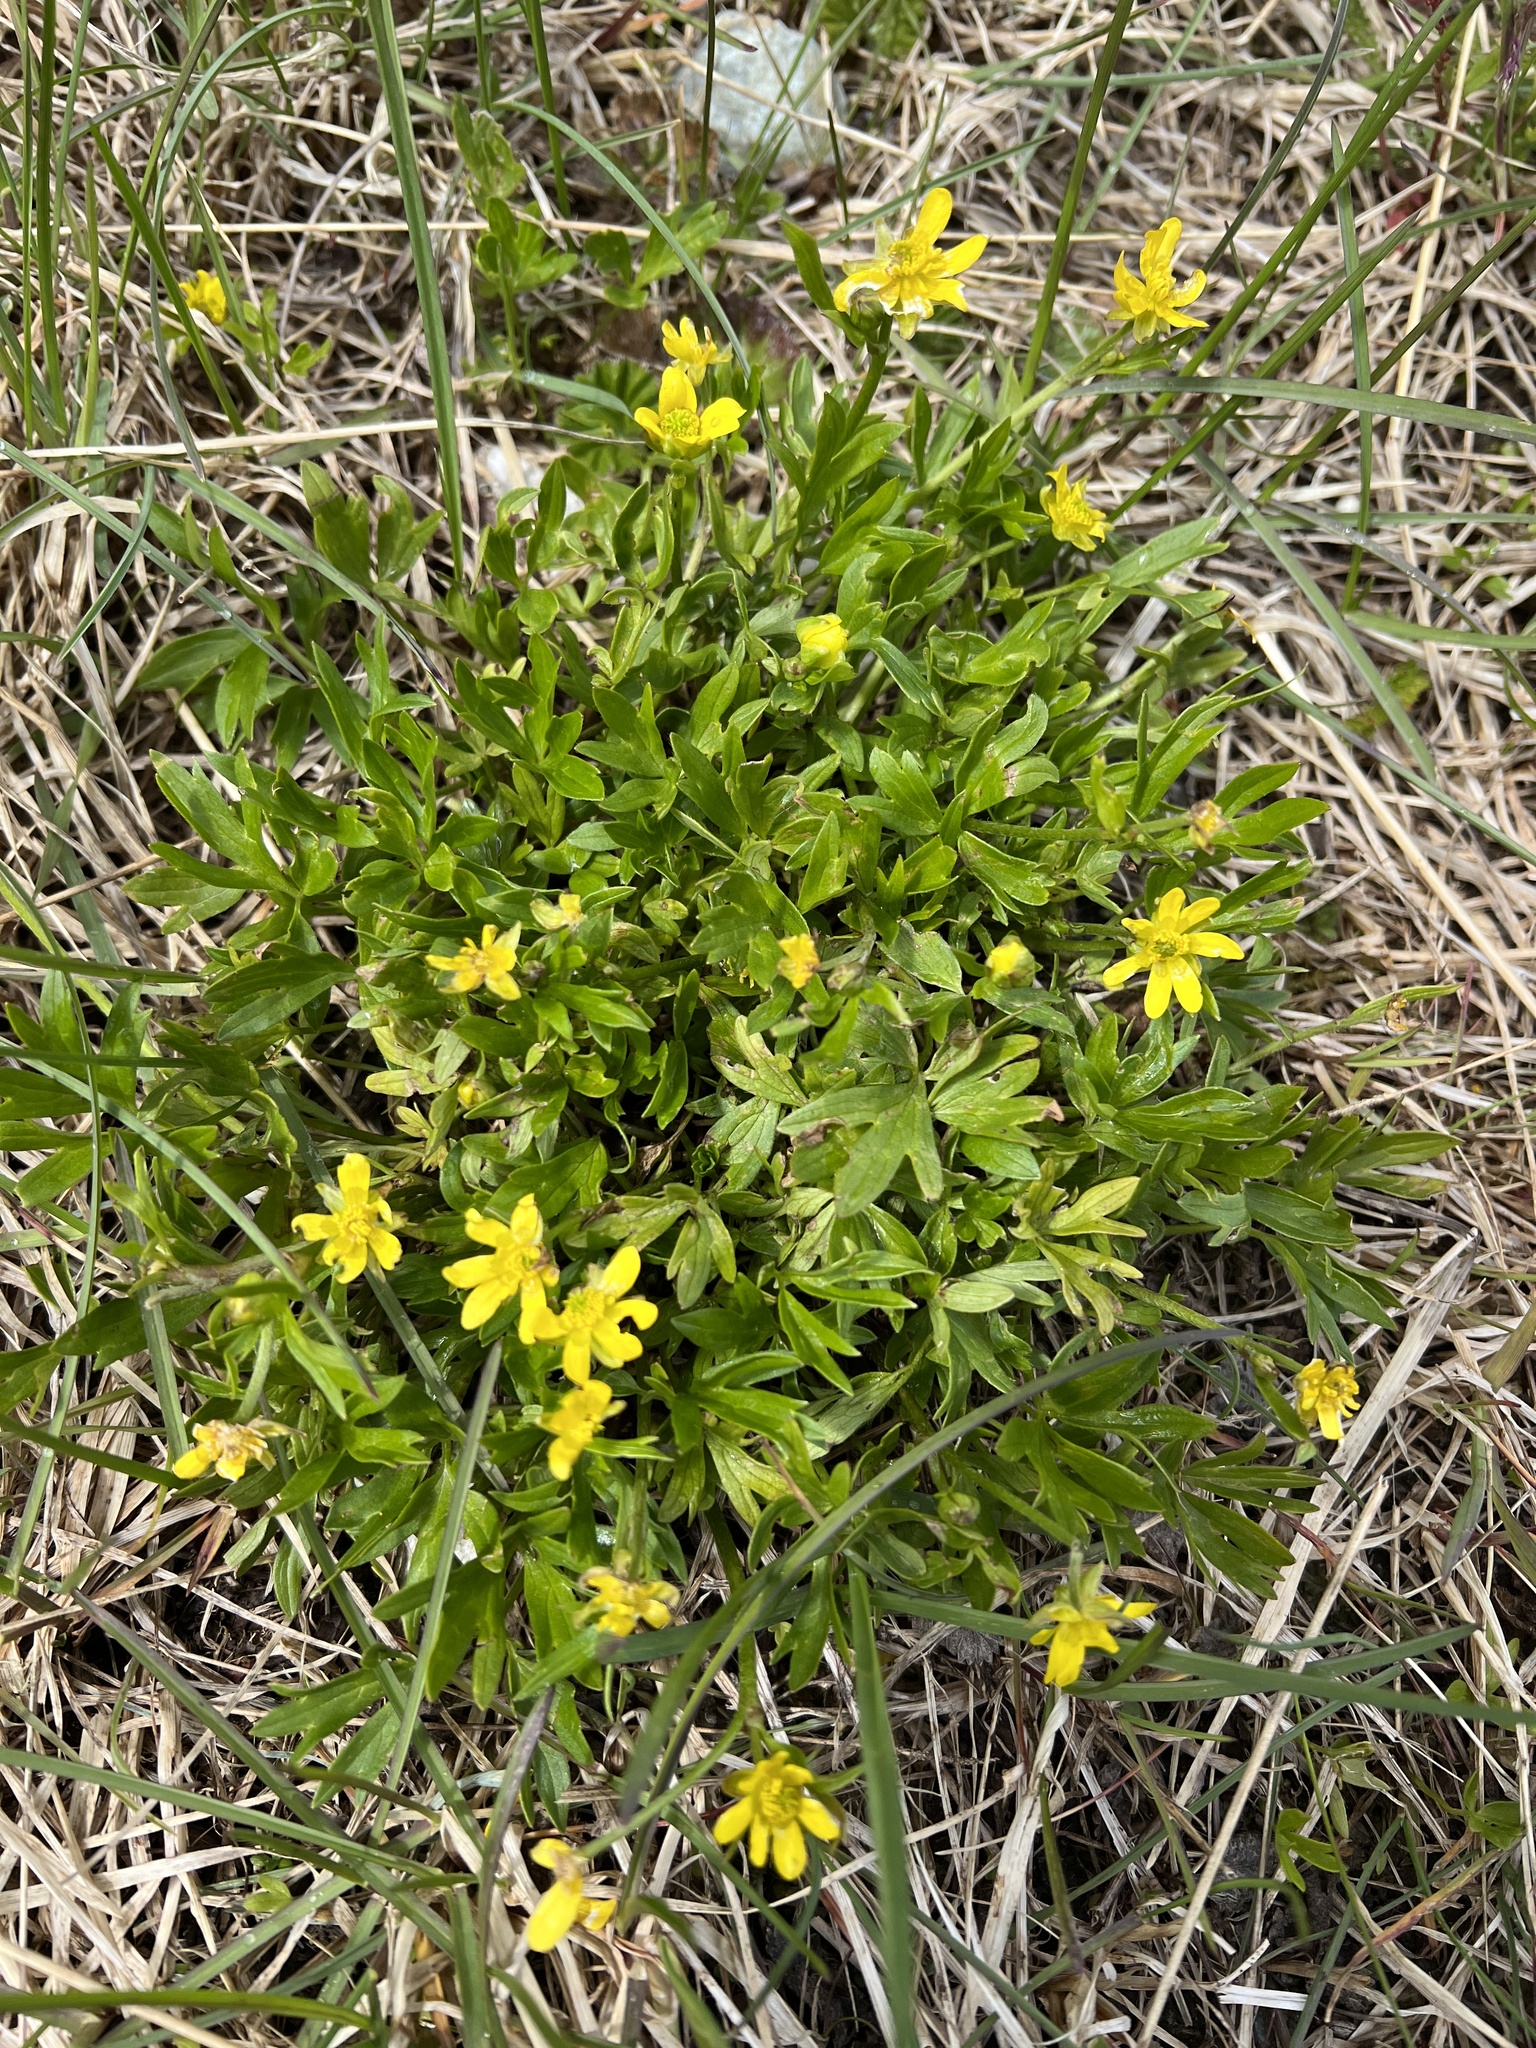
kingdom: Plantae
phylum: Tracheophyta
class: Magnoliopsida
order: Ranunculales
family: Ranunculaceae
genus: Ranunculus
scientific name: Ranunculus peduncularis
